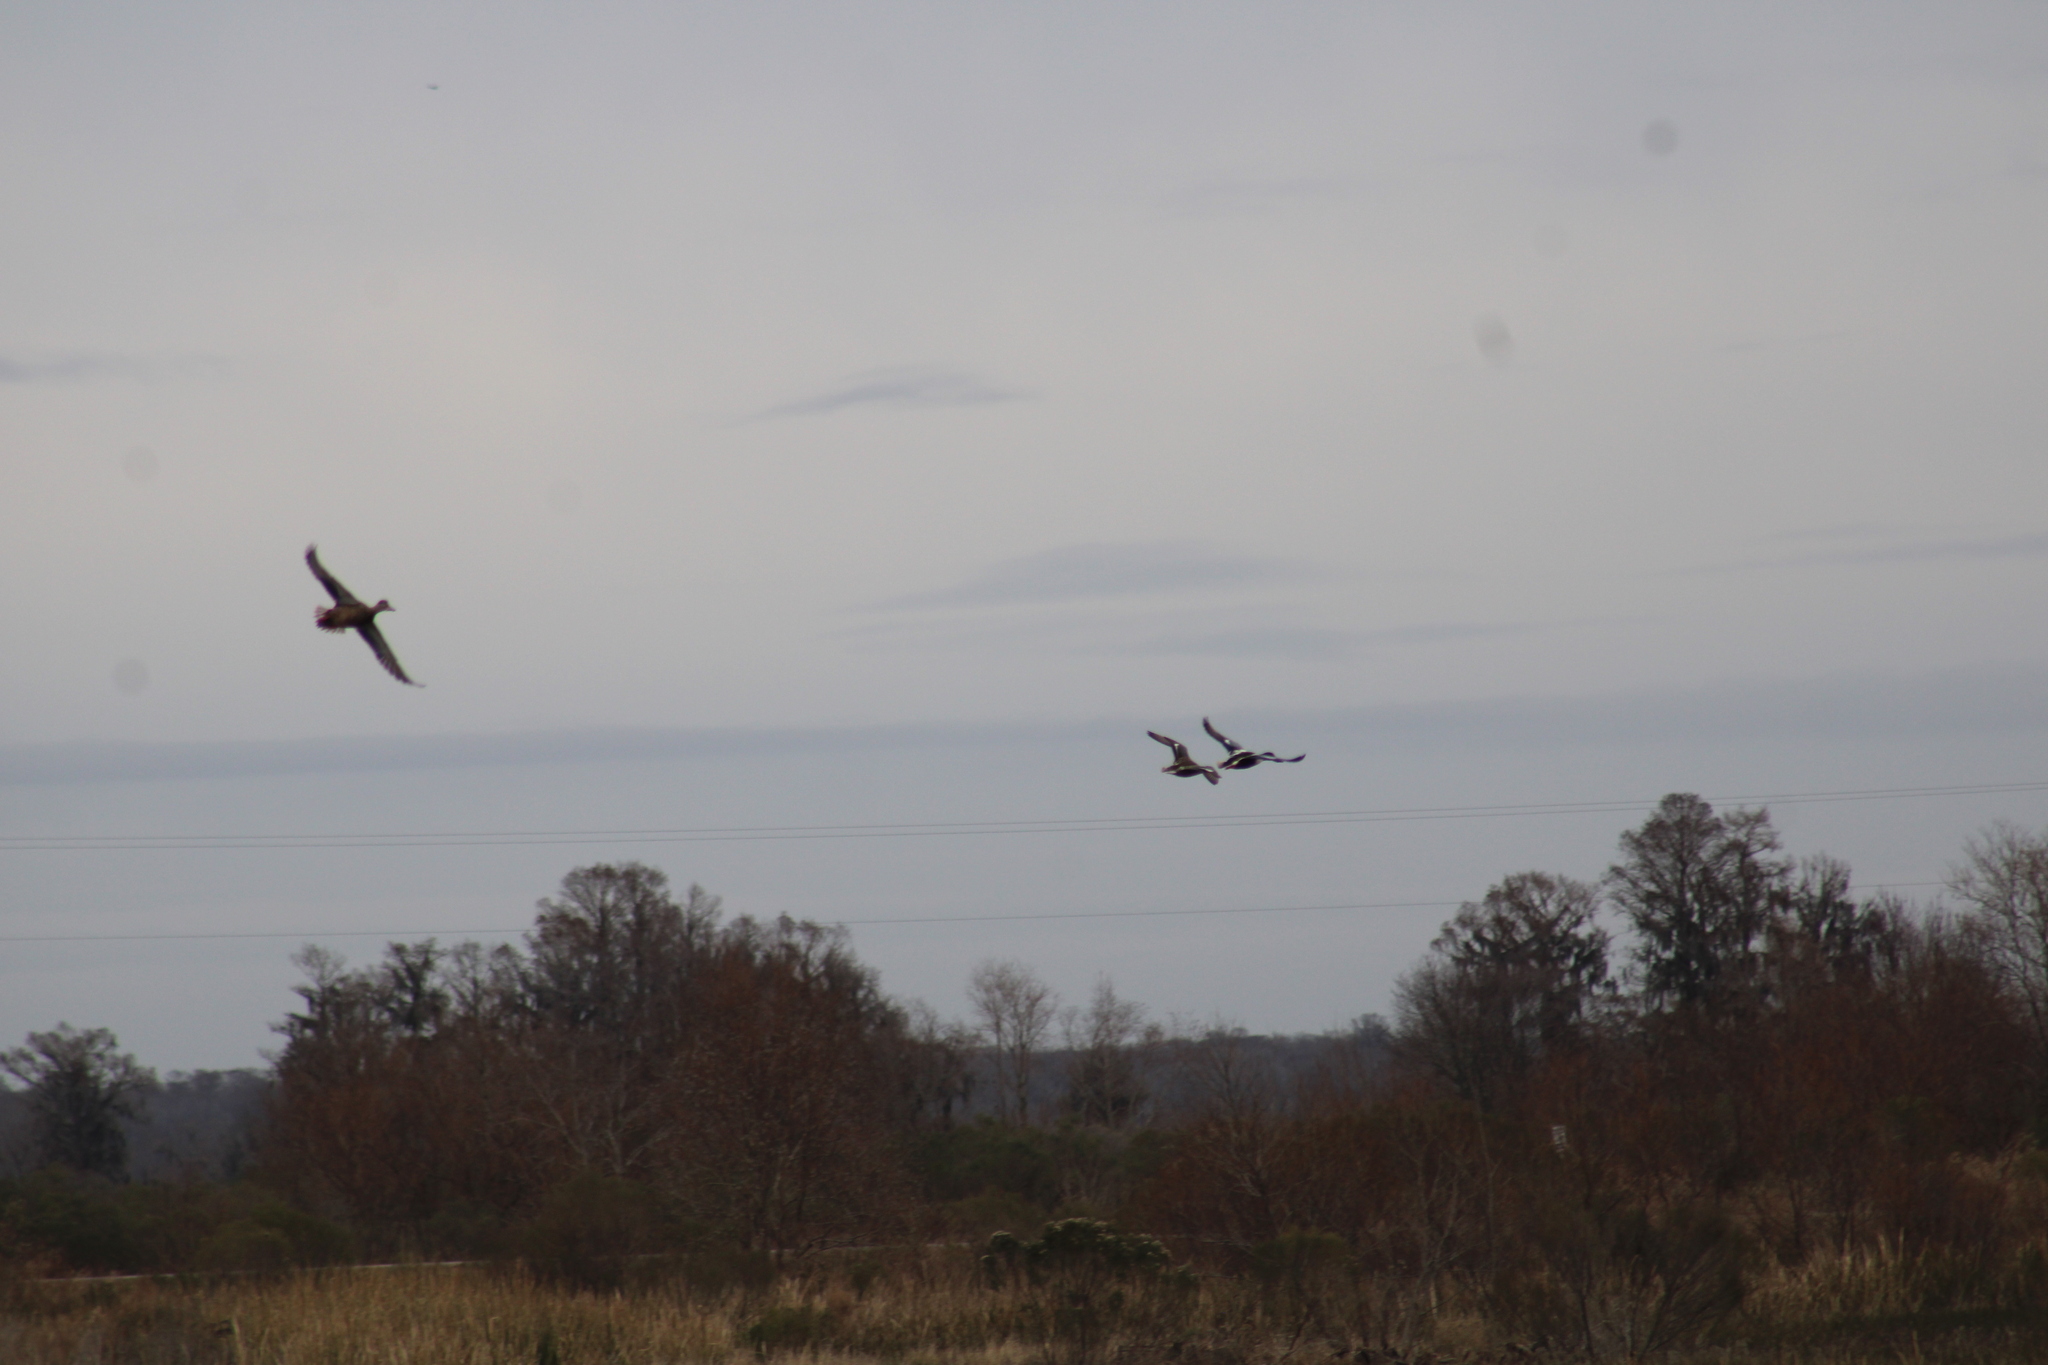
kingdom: Animalia
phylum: Chordata
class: Aves
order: Anseriformes
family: Anatidae
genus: Spatula
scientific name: Spatula clypeata
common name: Northern shoveler
